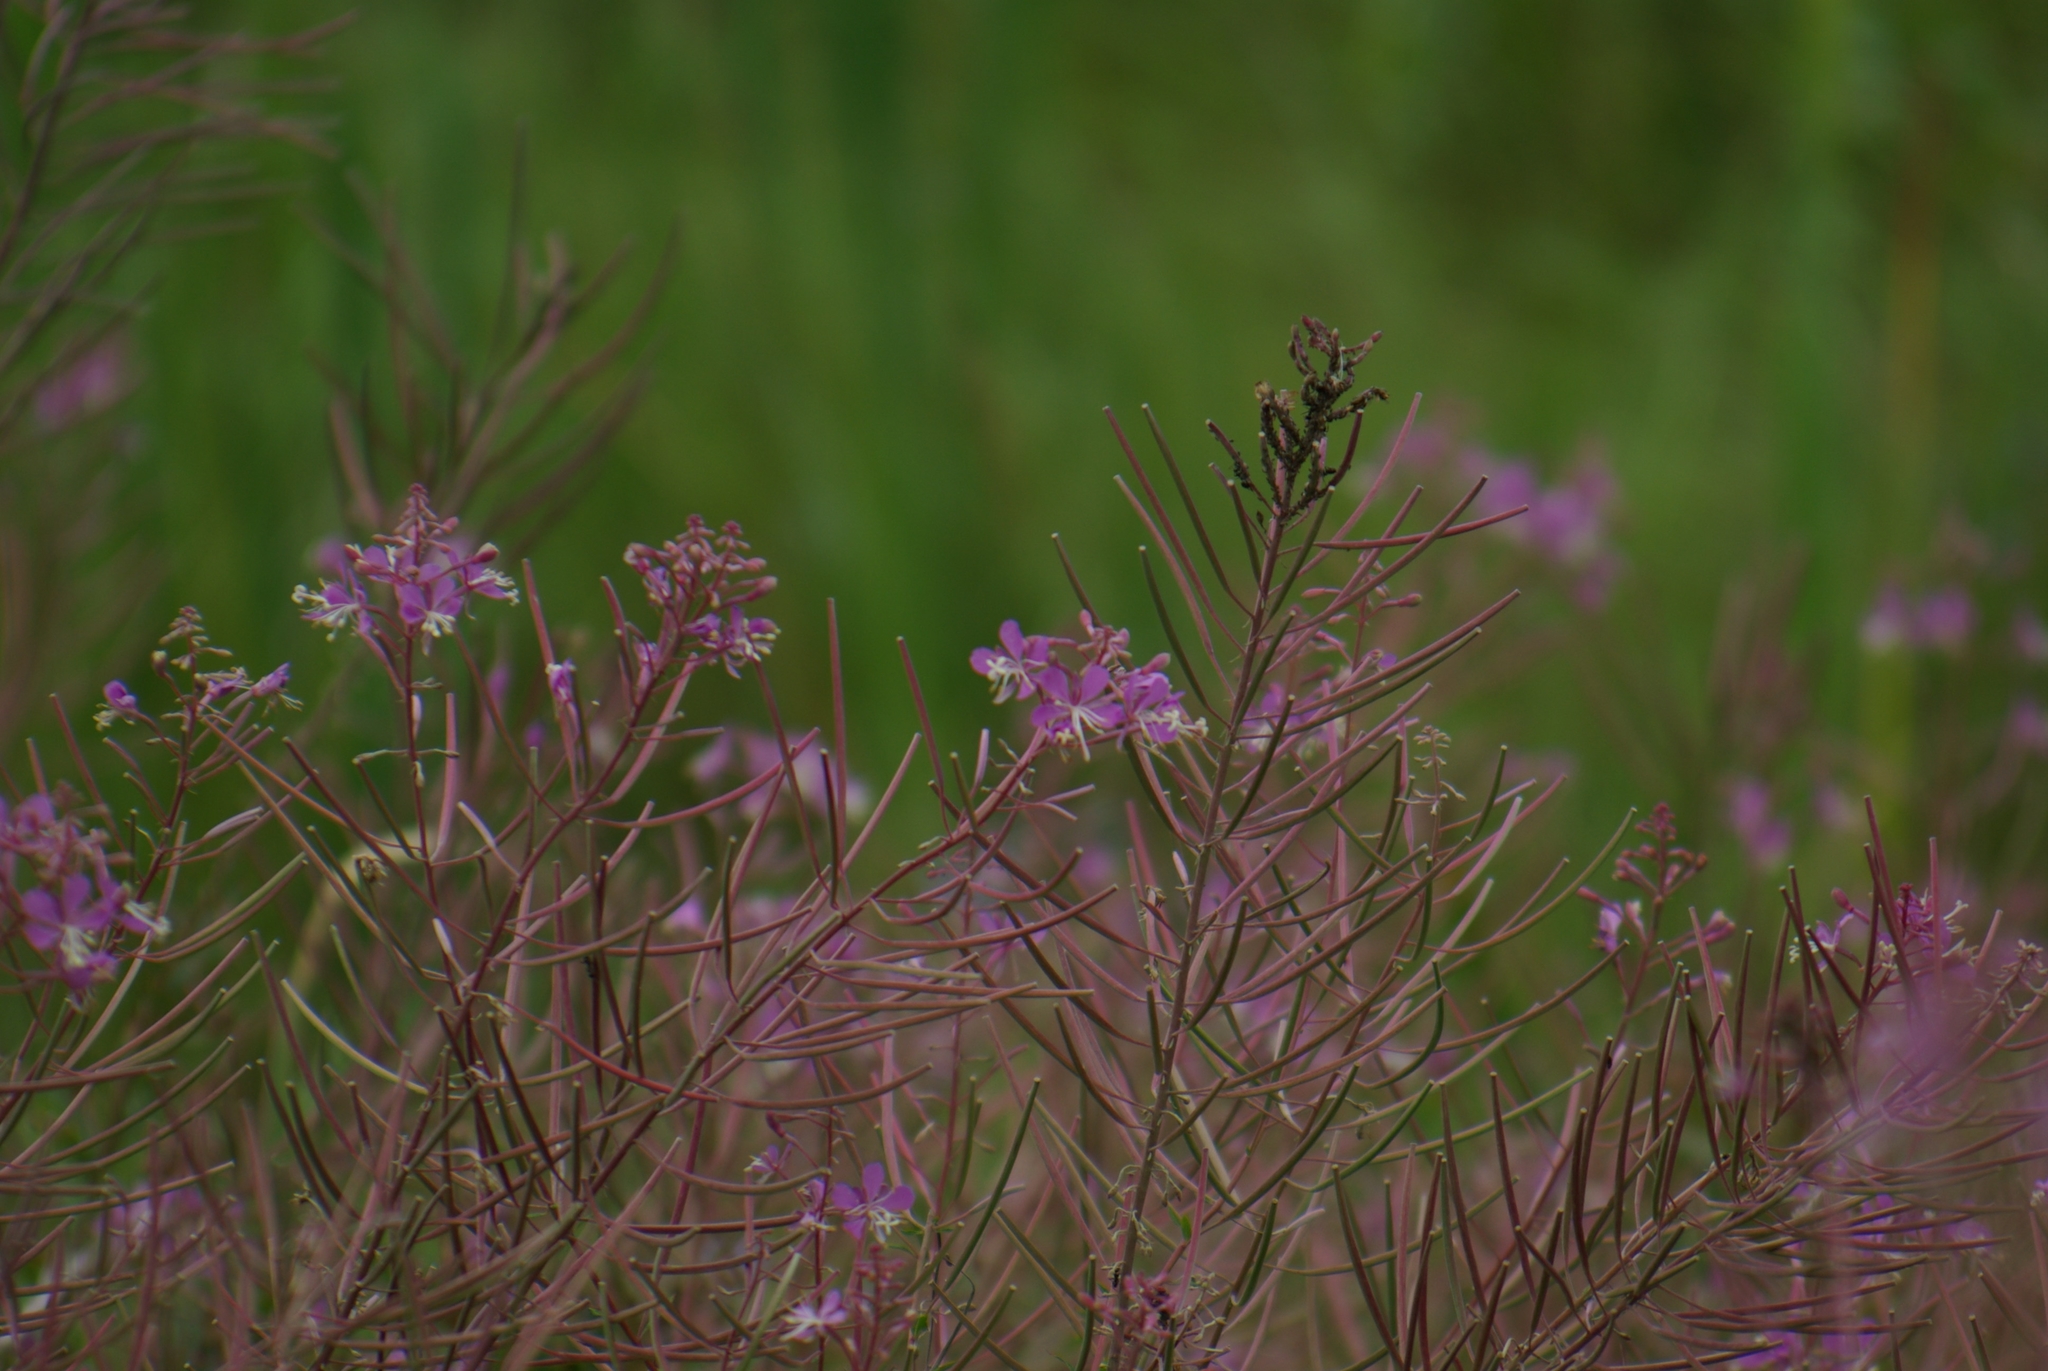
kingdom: Plantae
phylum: Tracheophyta
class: Magnoliopsida
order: Myrtales
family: Onagraceae
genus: Chamaenerion
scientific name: Chamaenerion angustifolium
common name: Fireweed
